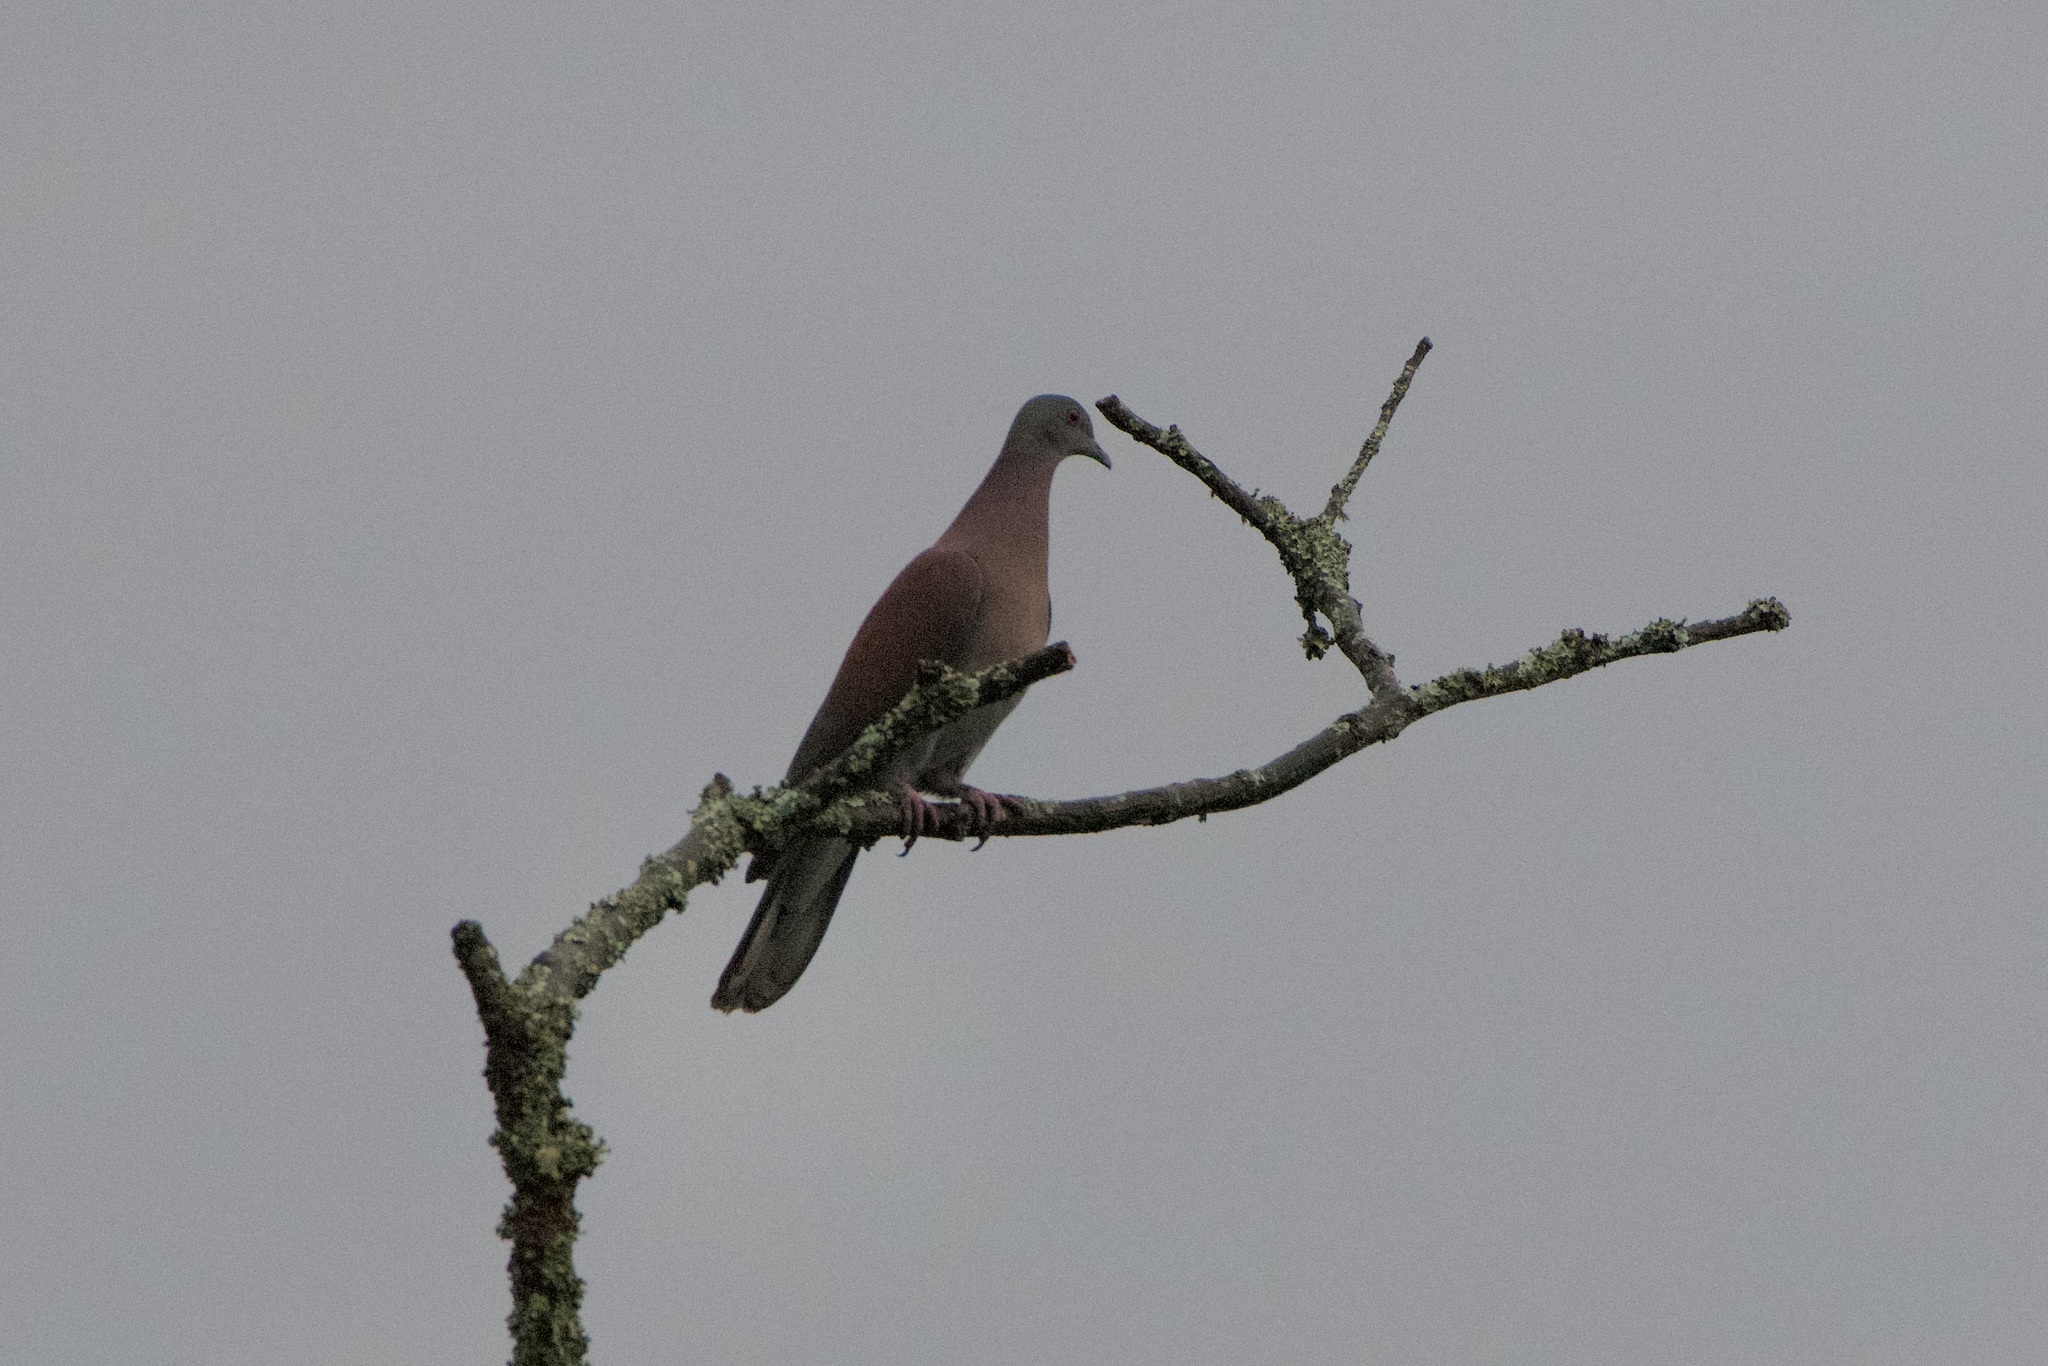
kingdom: Animalia
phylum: Chordata
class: Aves
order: Columbiformes
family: Columbidae
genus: Patagioenas
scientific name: Patagioenas cayennensis
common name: Pale-vented pigeon
